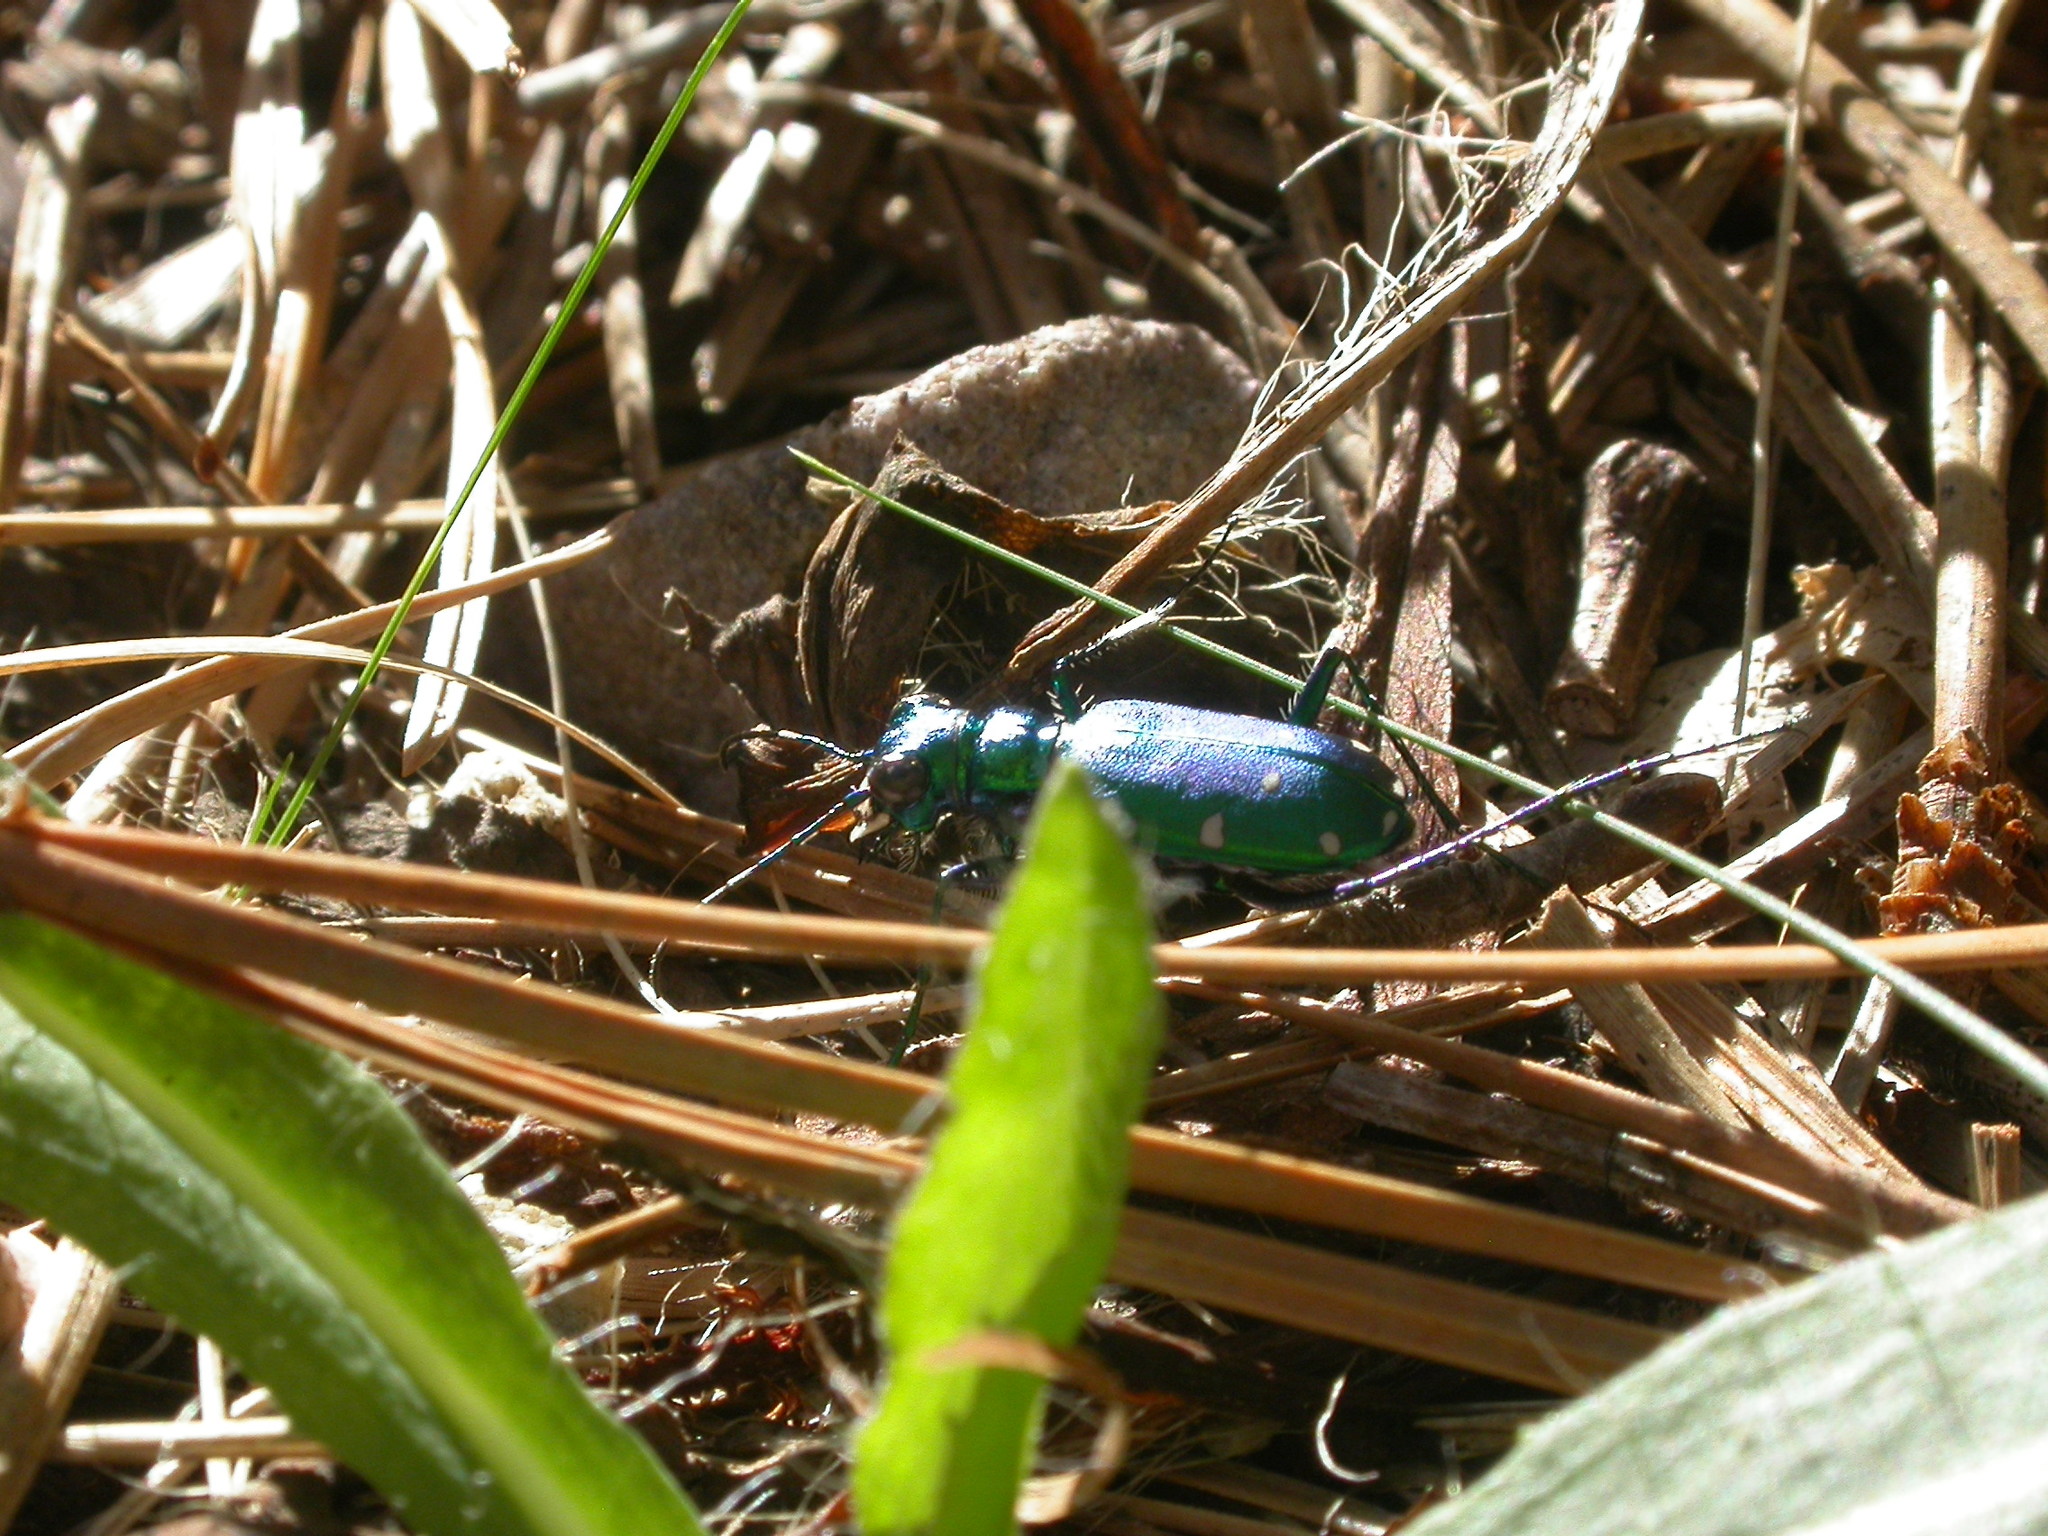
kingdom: Animalia
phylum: Arthropoda
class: Insecta
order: Coleoptera
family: Carabidae
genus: Cicindela
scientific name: Cicindela sexguttata
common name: Six-spotted tiger beetle
